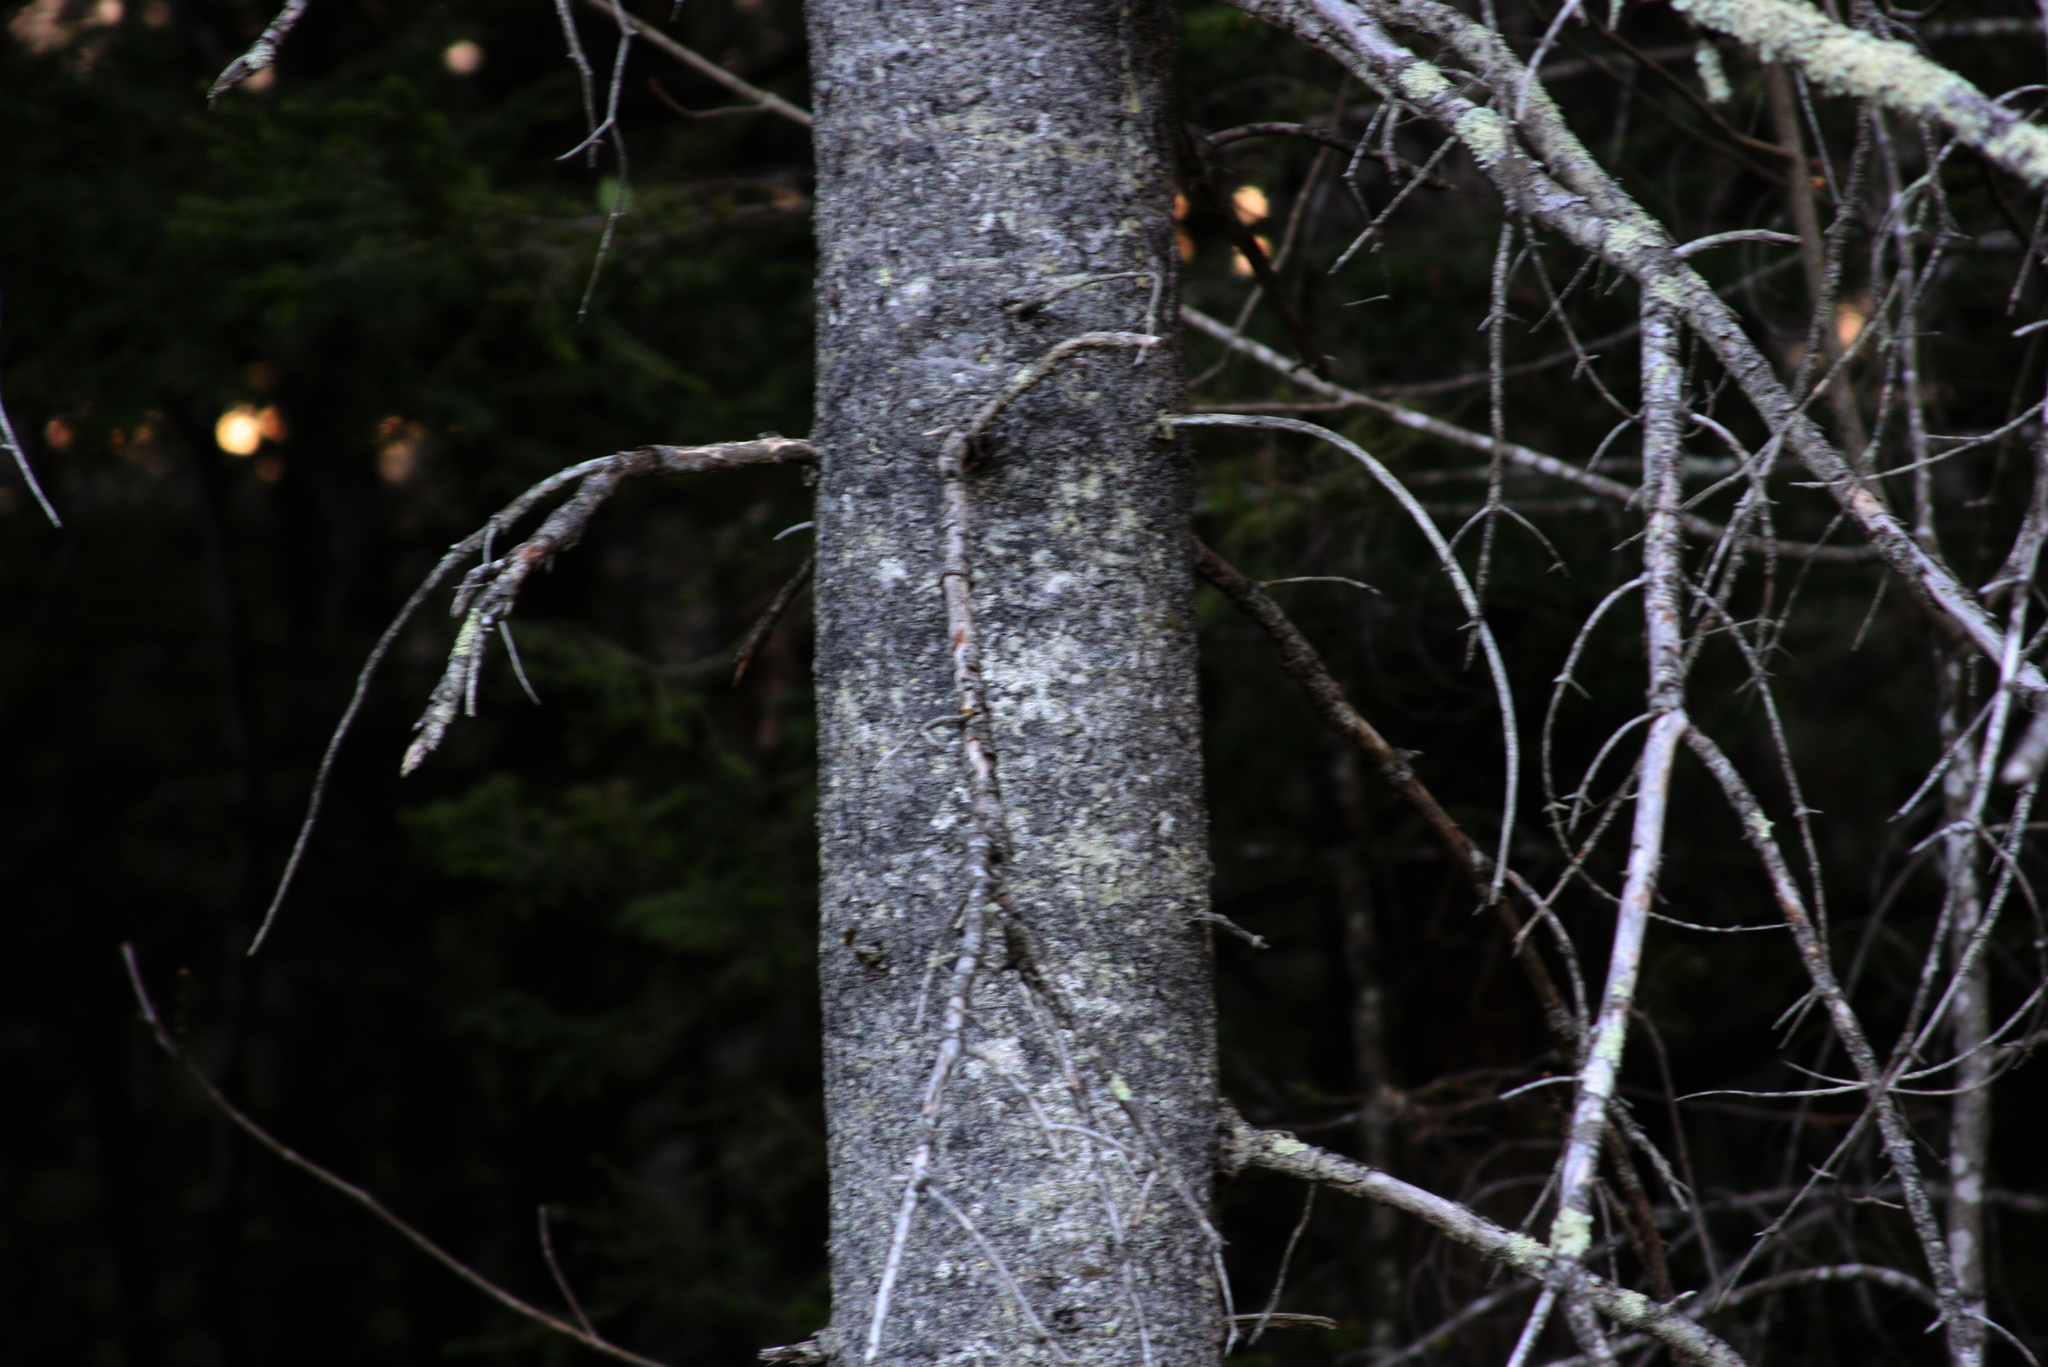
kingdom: Plantae
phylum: Tracheophyta
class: Pinopsida
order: Pinales
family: Pinaceae
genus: Abies
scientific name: Abies balsamea
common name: Balsam fir
